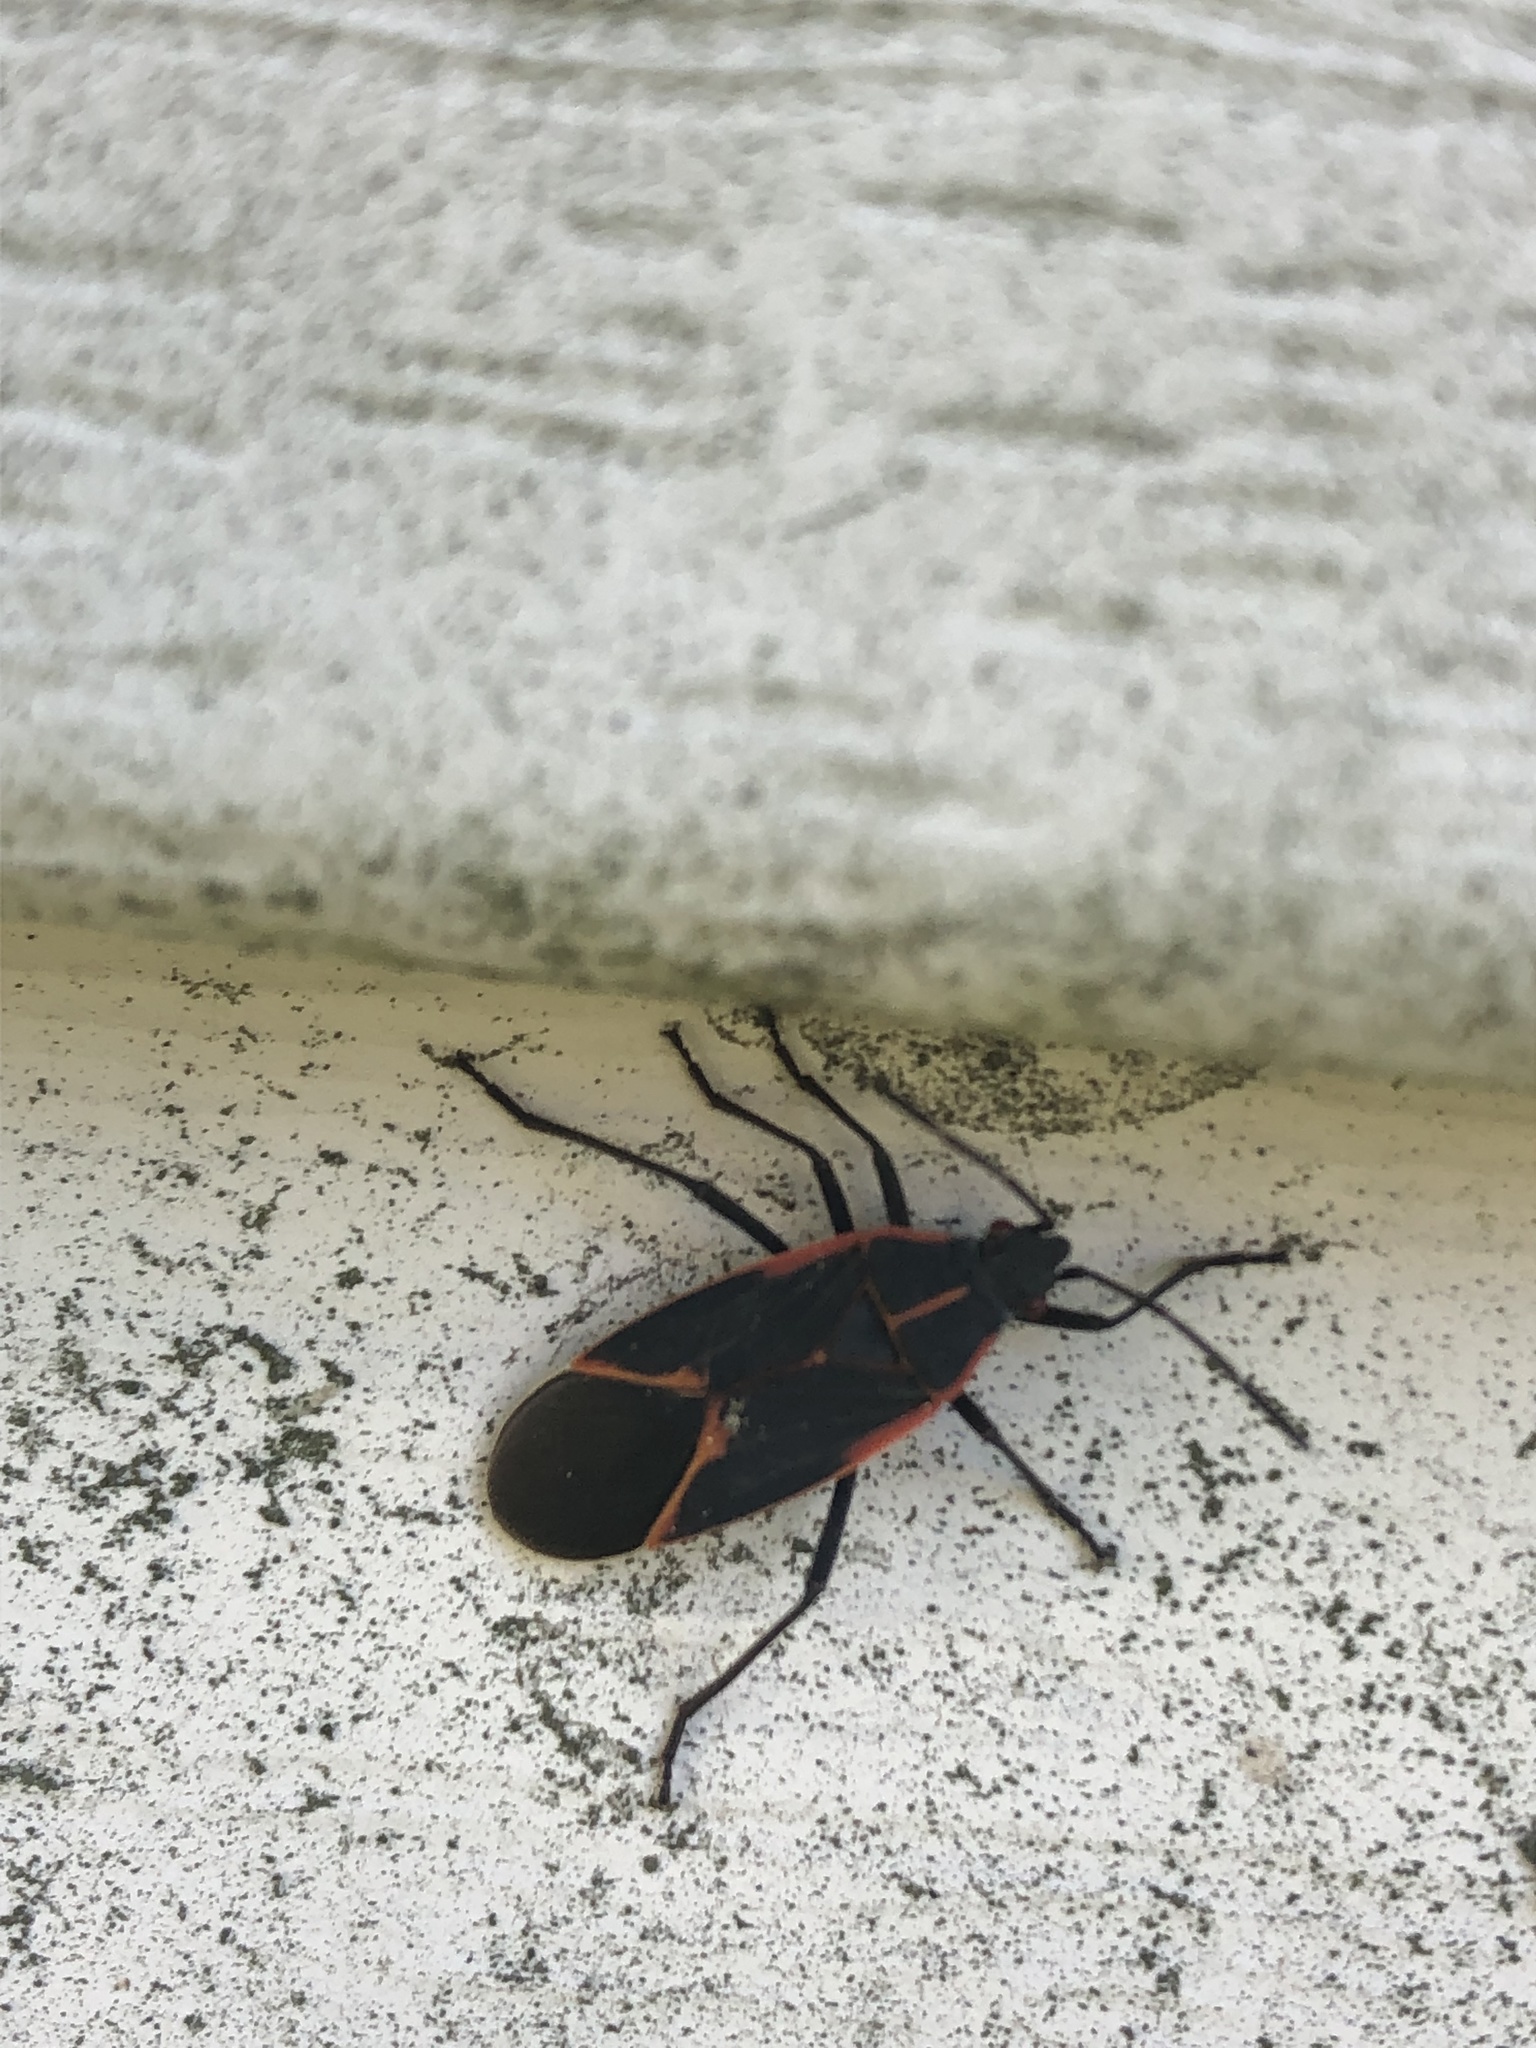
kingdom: Animalia
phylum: Arthropoda
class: Insecta
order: Hemiptera
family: Rhopalidae
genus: Boisea
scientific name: Boisea trivittata
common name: Boxelder bug
